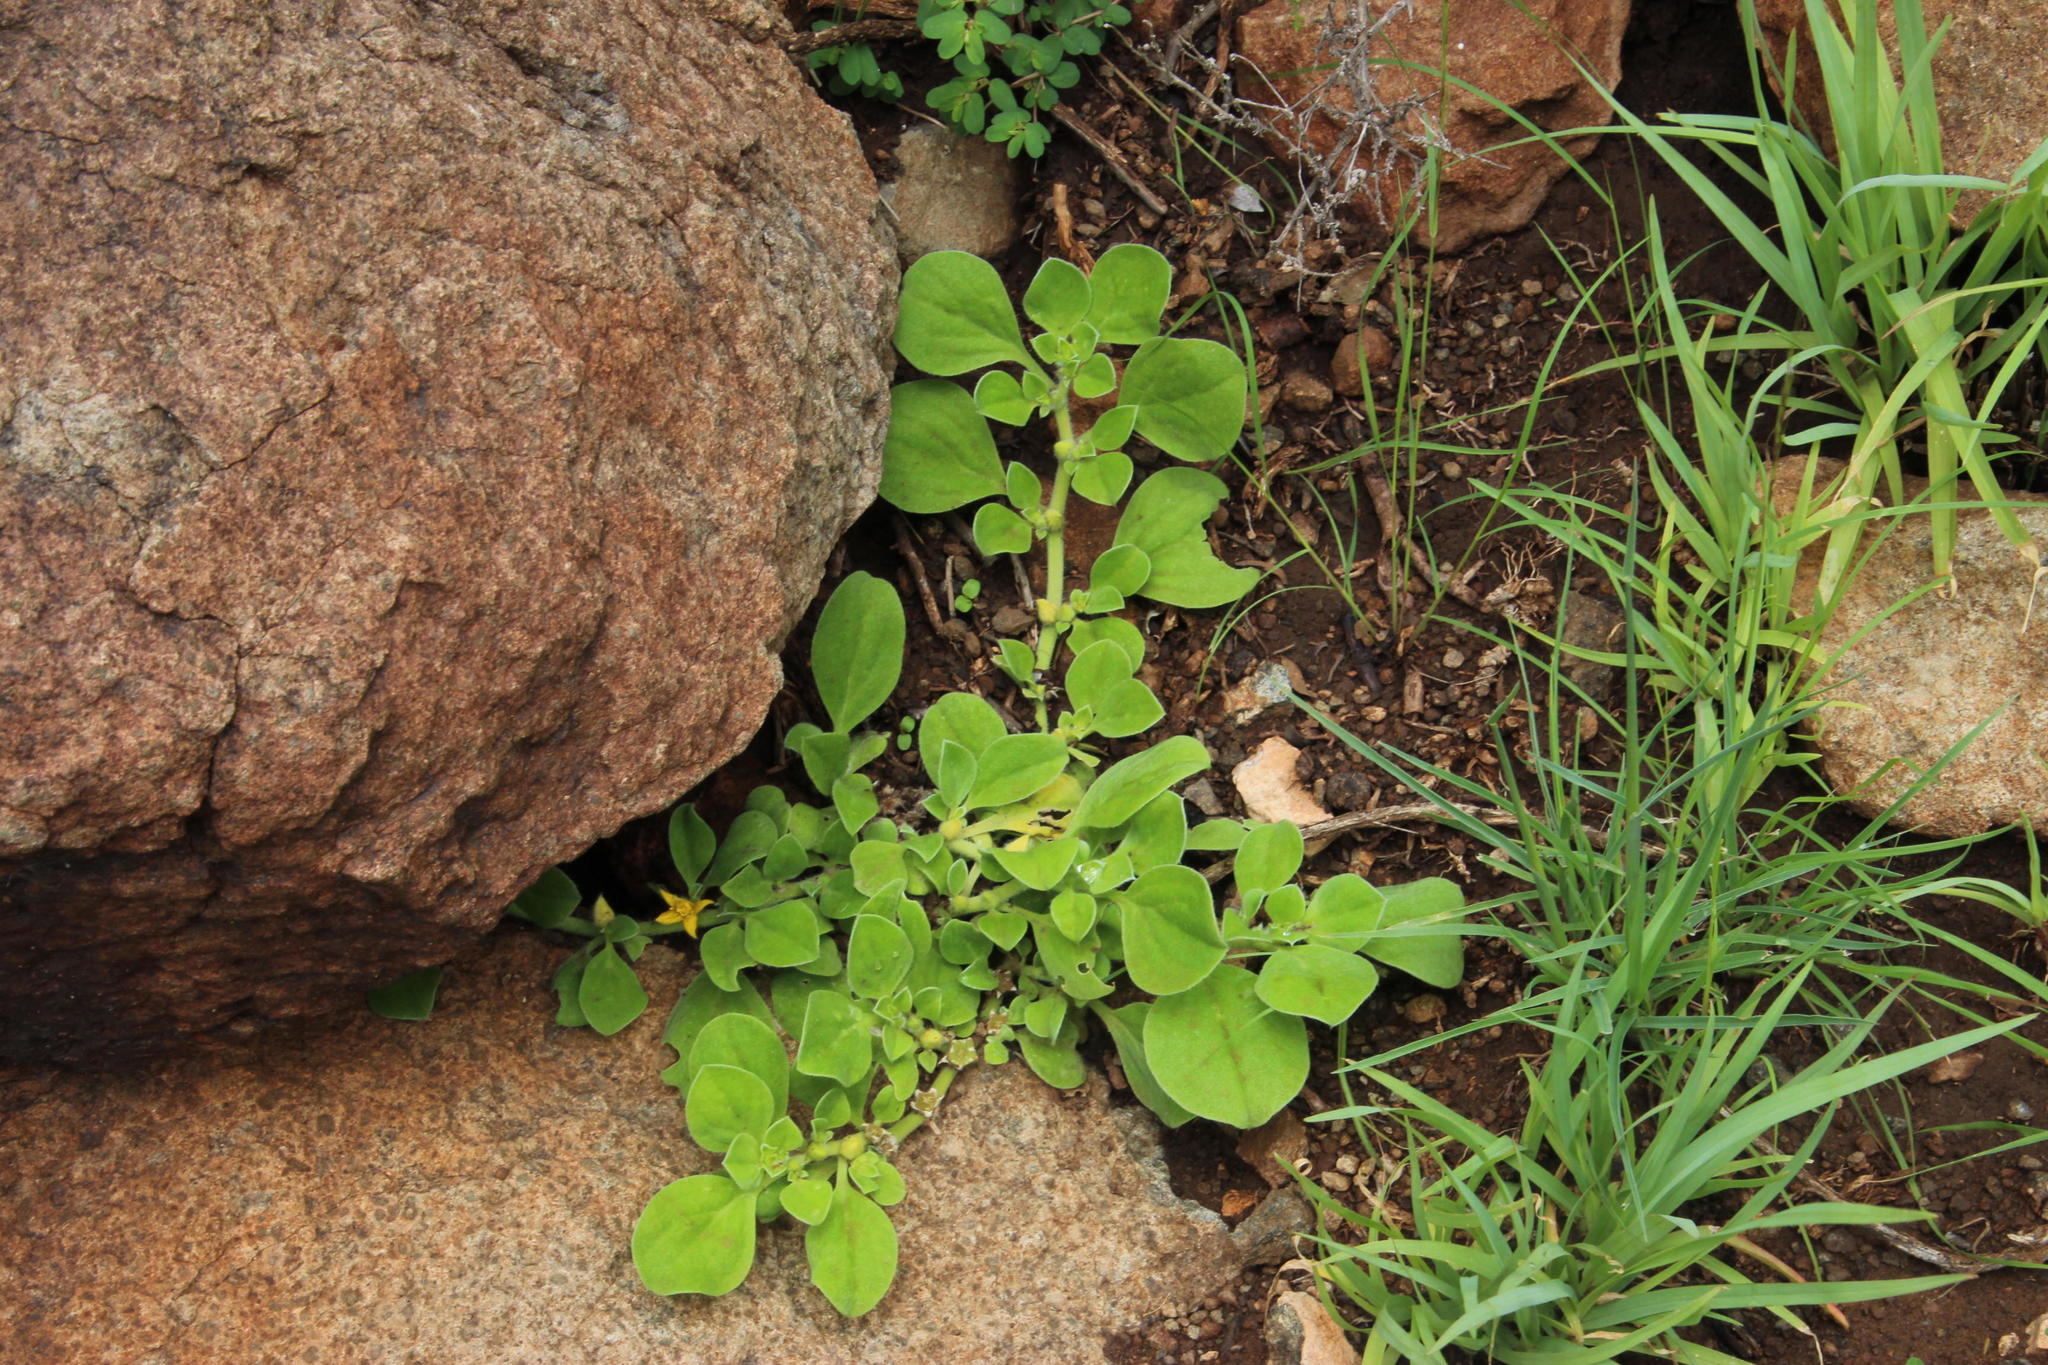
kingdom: Plantae
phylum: Tracheophyta
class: Magnoliopsida
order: Caryophyllales
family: Aizoaceae
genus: Aizoon
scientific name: Aizoon glinoides
